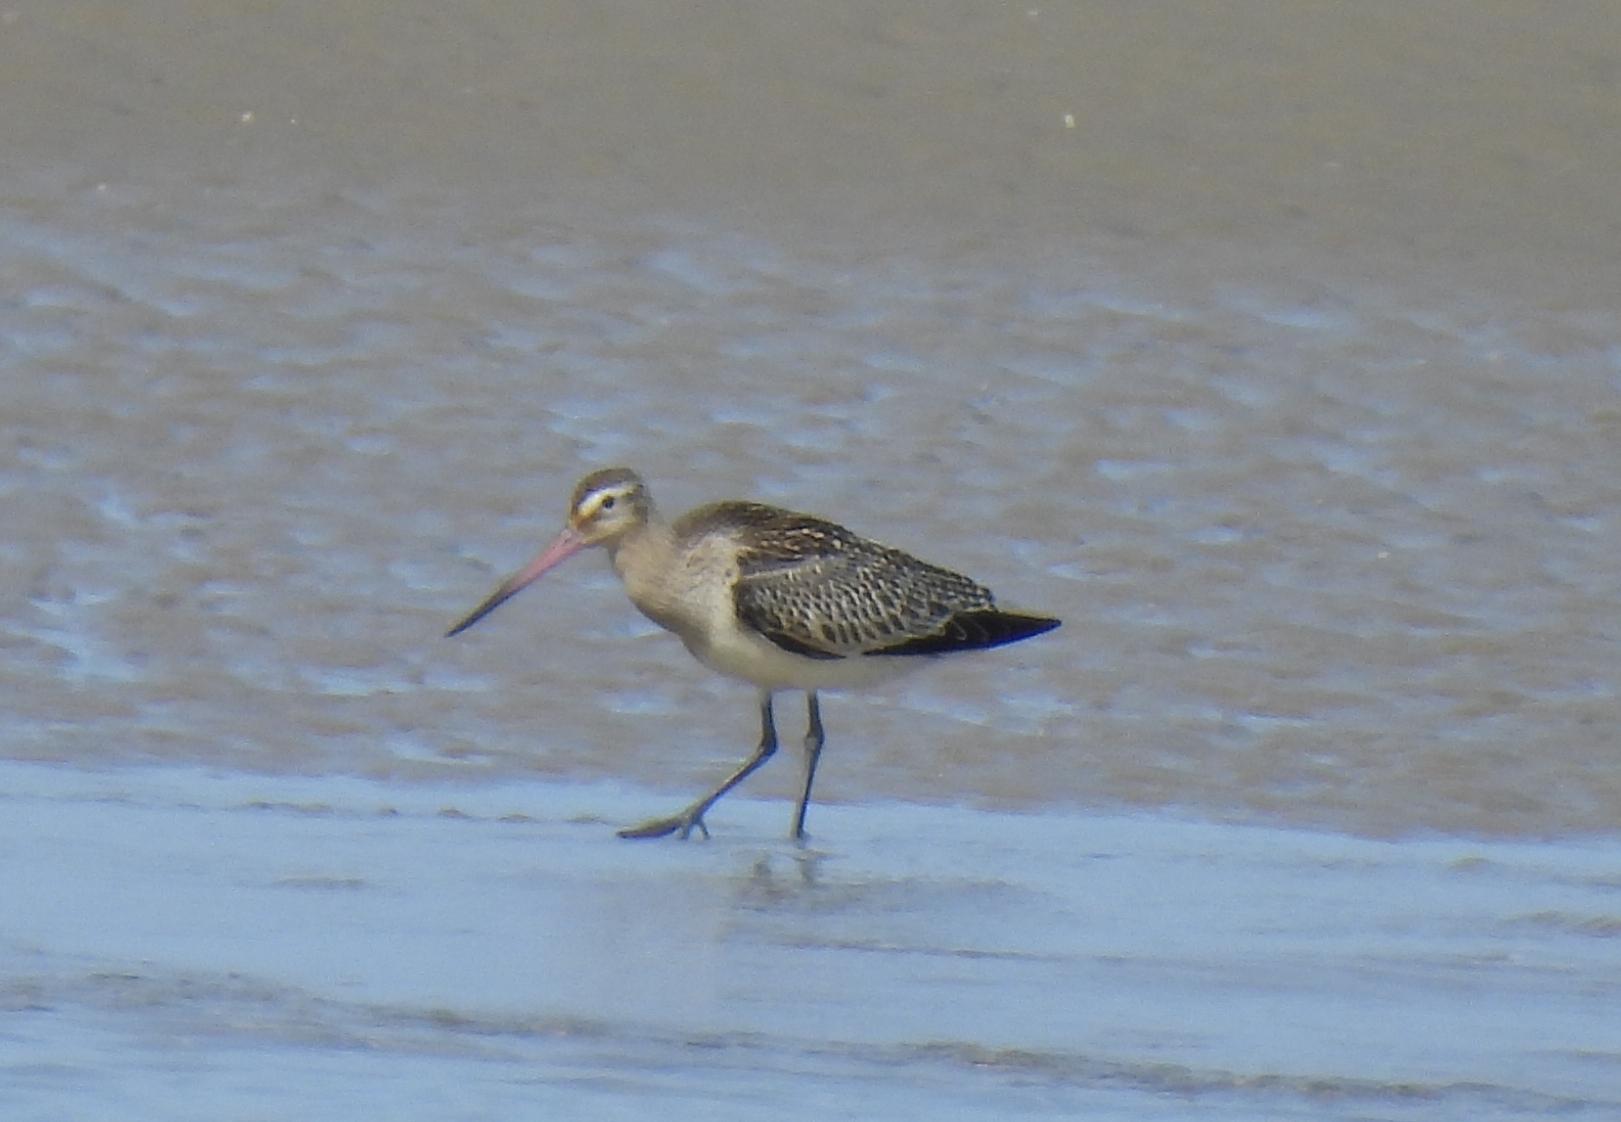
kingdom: Animalia
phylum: Chordata
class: Aves
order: Charadriiformes
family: Scolopacidae
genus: Limosa
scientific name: Limosa lapponica
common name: Bar-tailed godwit
